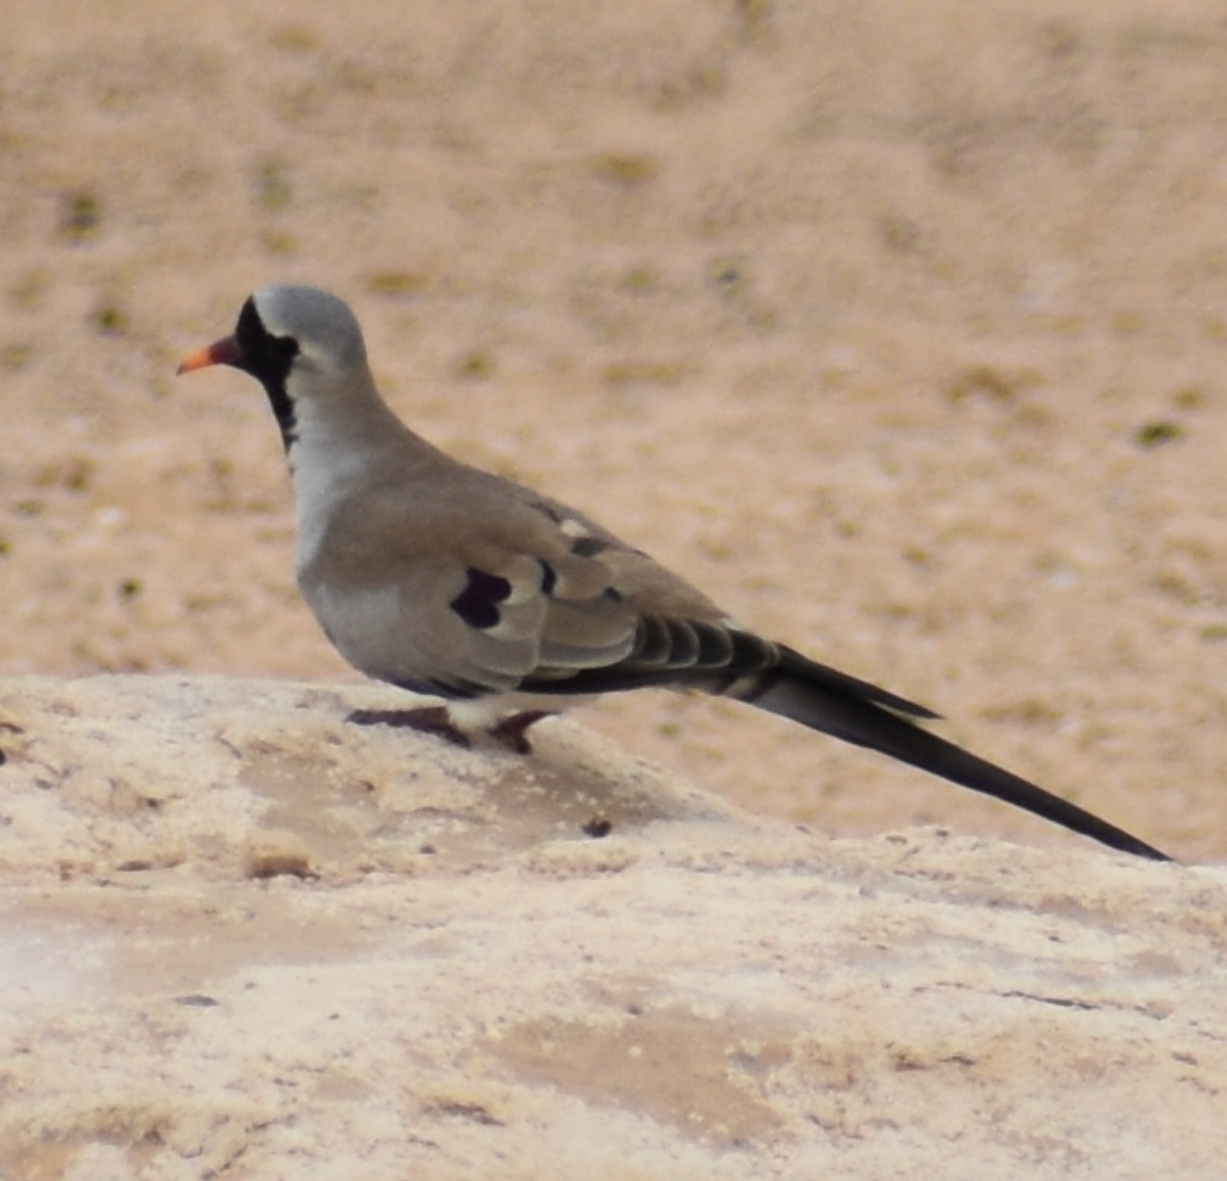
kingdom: Animalia
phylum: Chordata
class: Aves
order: Columbiformes
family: Columbidae
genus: Oena
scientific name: Oena capensis
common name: Namaqua dove
